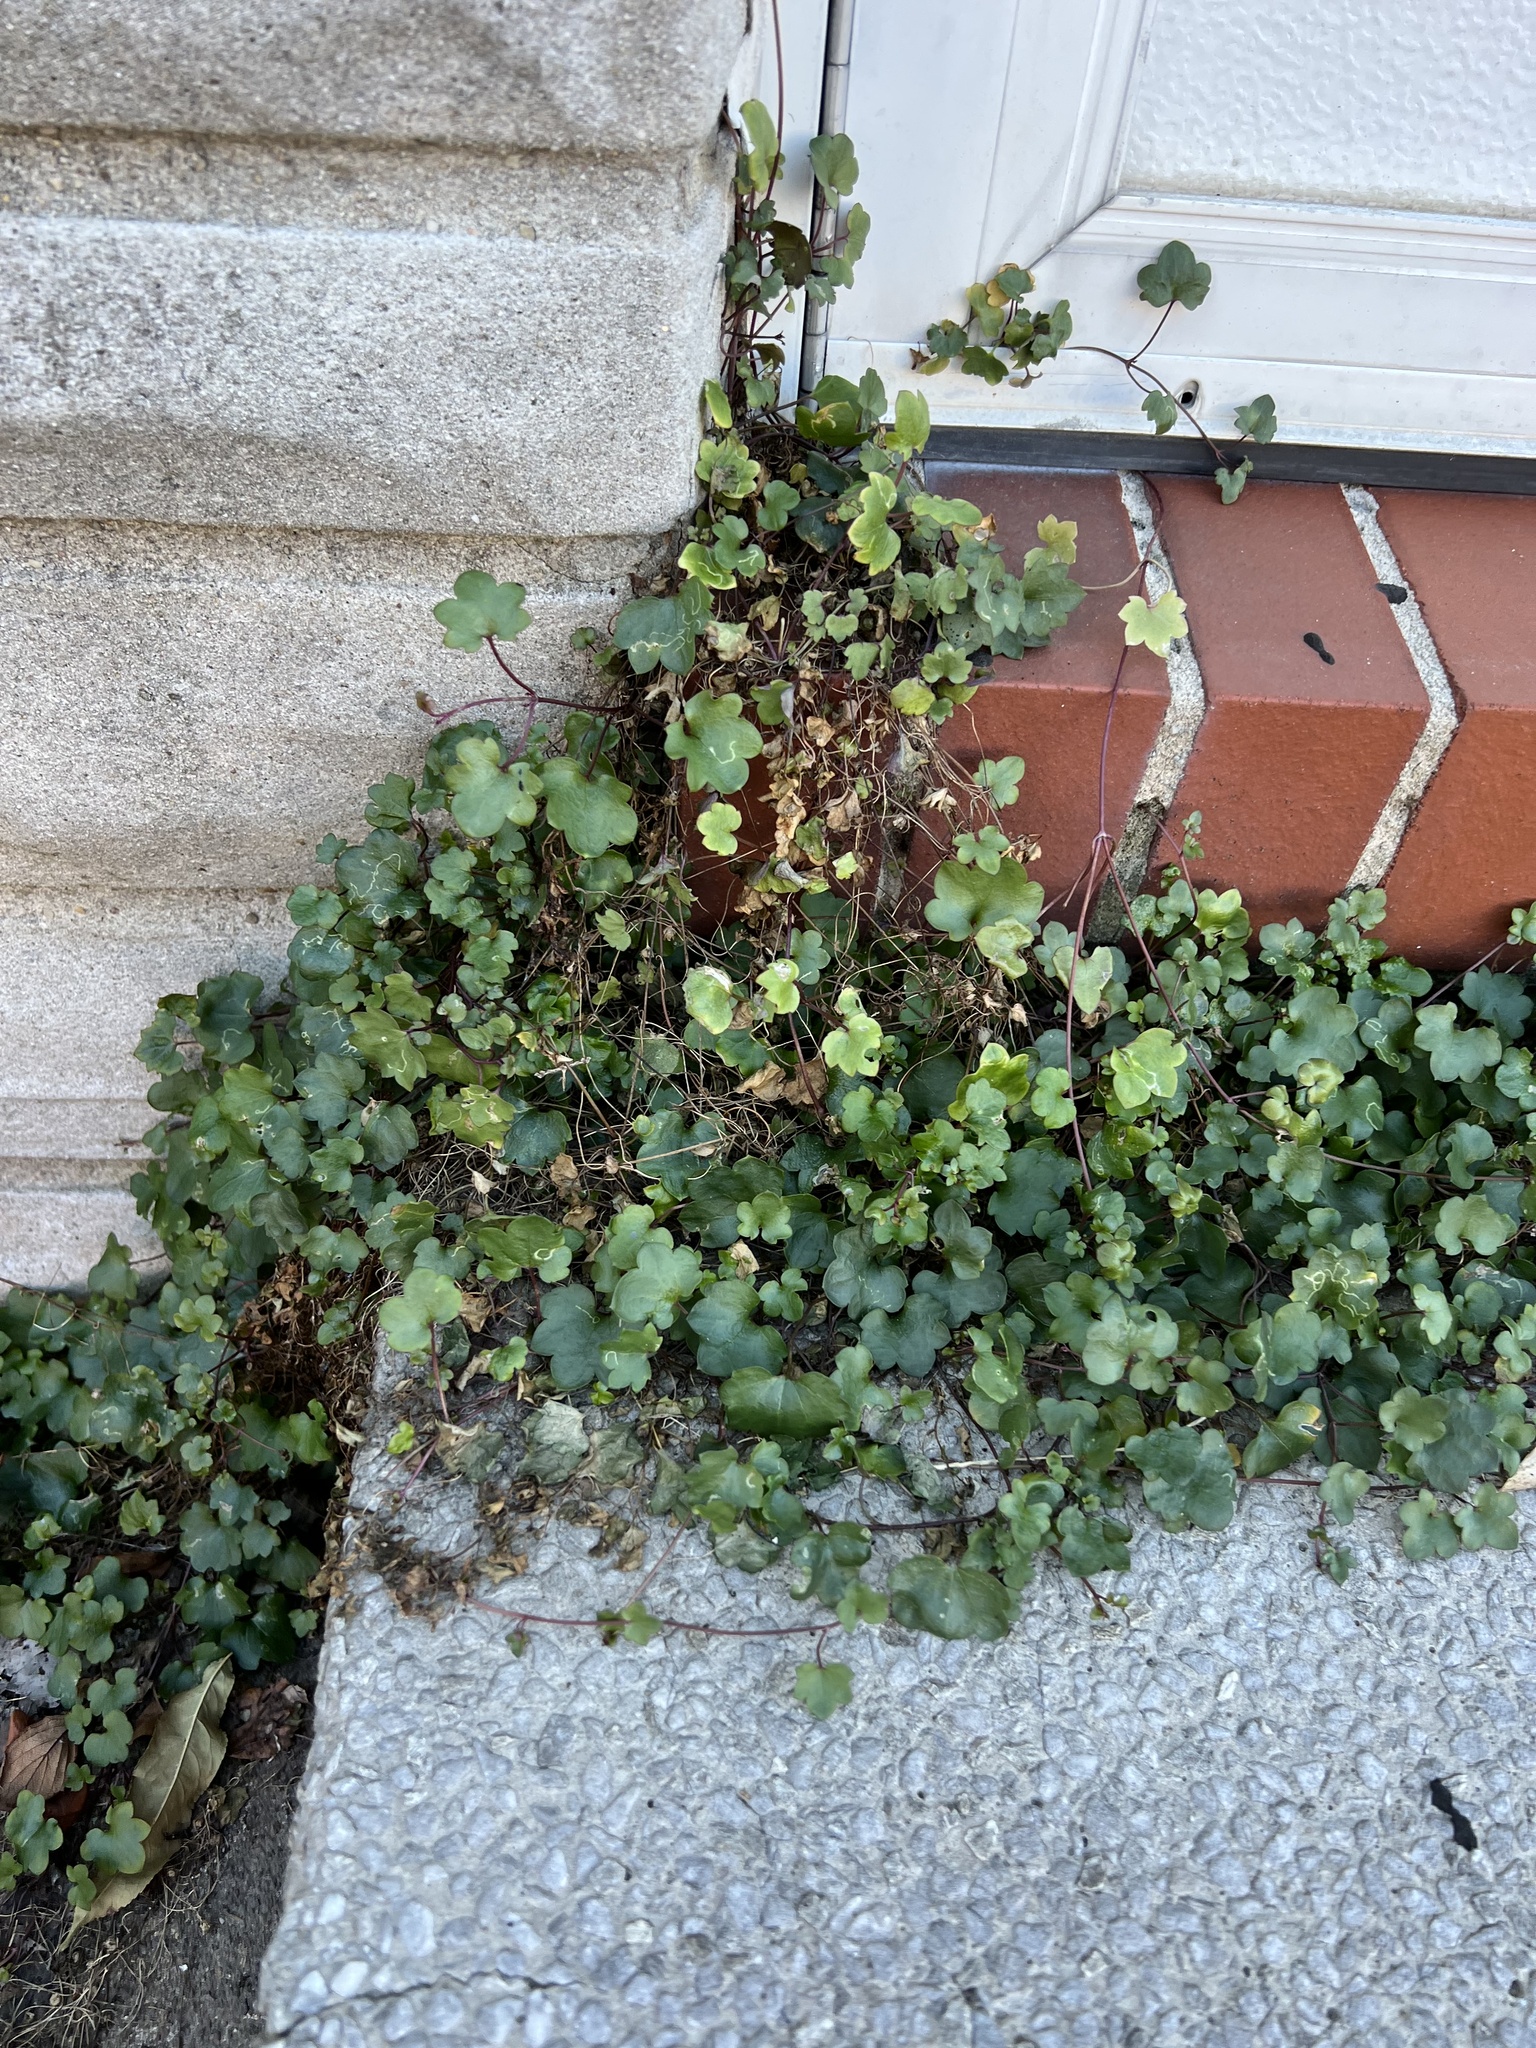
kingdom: Plantae
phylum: Tracheophyta
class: Magnoliopsida
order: Lamiales
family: Plantaginaceae
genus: Cymbalaria
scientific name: Cymbalaria muralis
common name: Ivy-leaved toadflax
